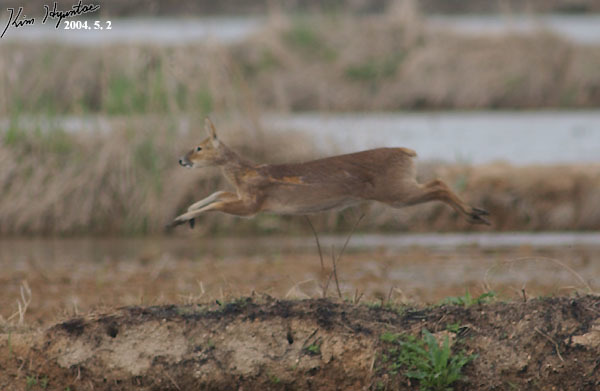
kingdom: Animalia
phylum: Chordata
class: Mammalia
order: Artiodactyla
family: Cervidae
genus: Hydropotes
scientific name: Hydropotes inermis
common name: Chinese water deer
